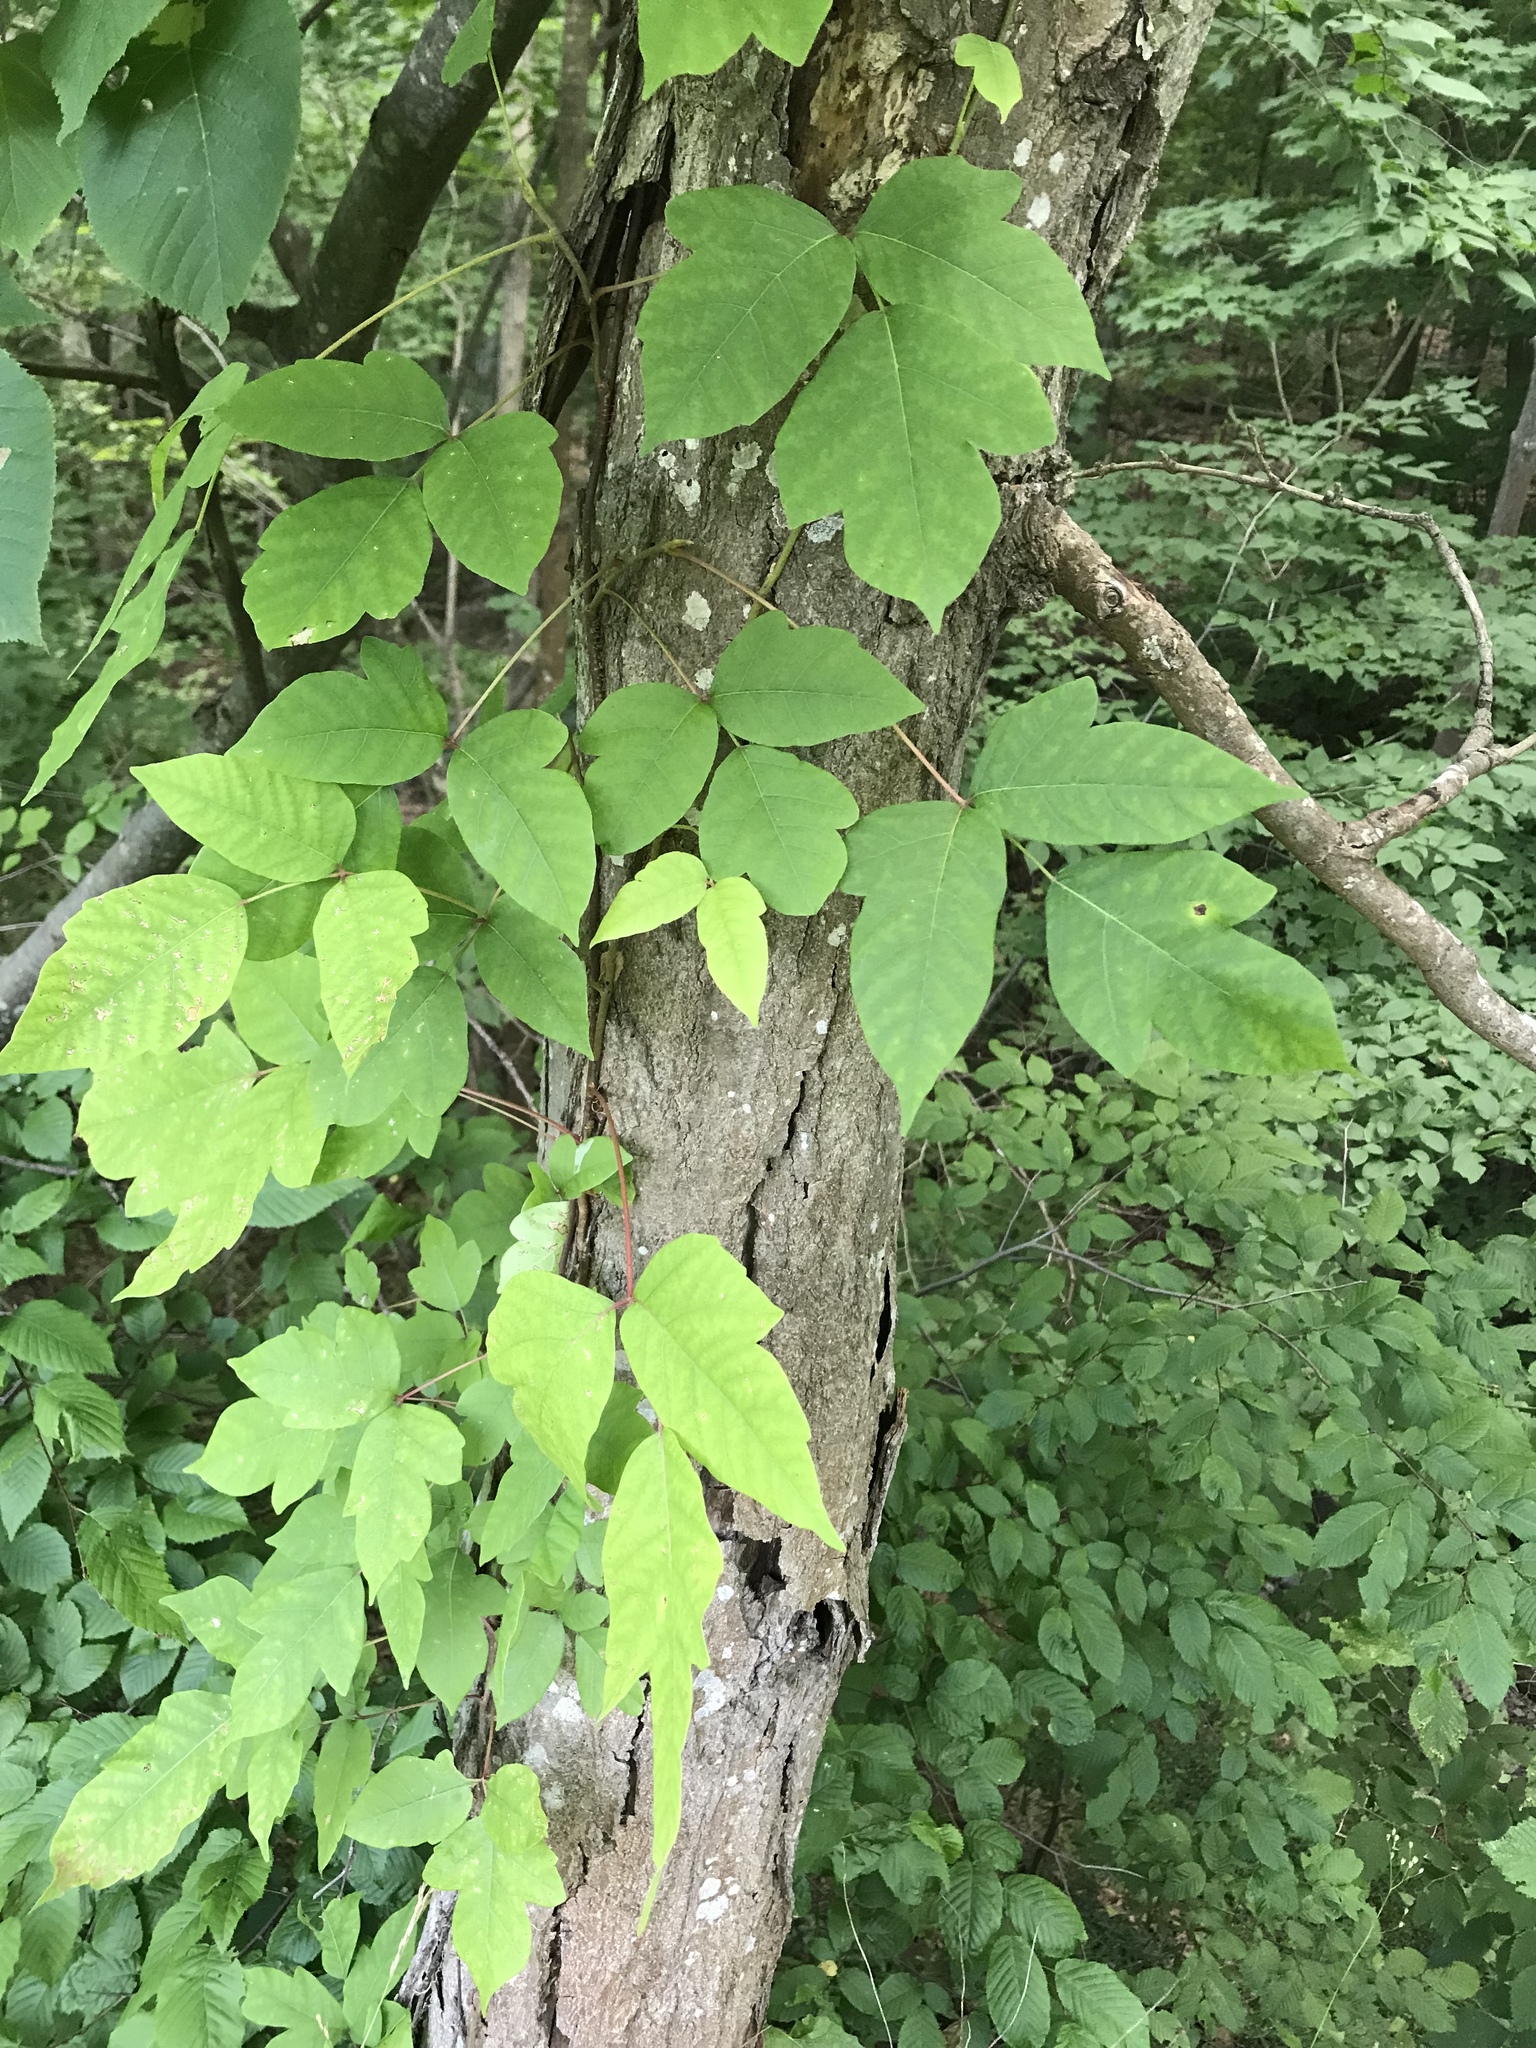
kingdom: Plantae
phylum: Tracheophyta
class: Magnoliopsida
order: Sapindales
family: Anacardiaceae
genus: Toxicodendron
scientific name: Toxicodendron radicans
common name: Poison ivy
